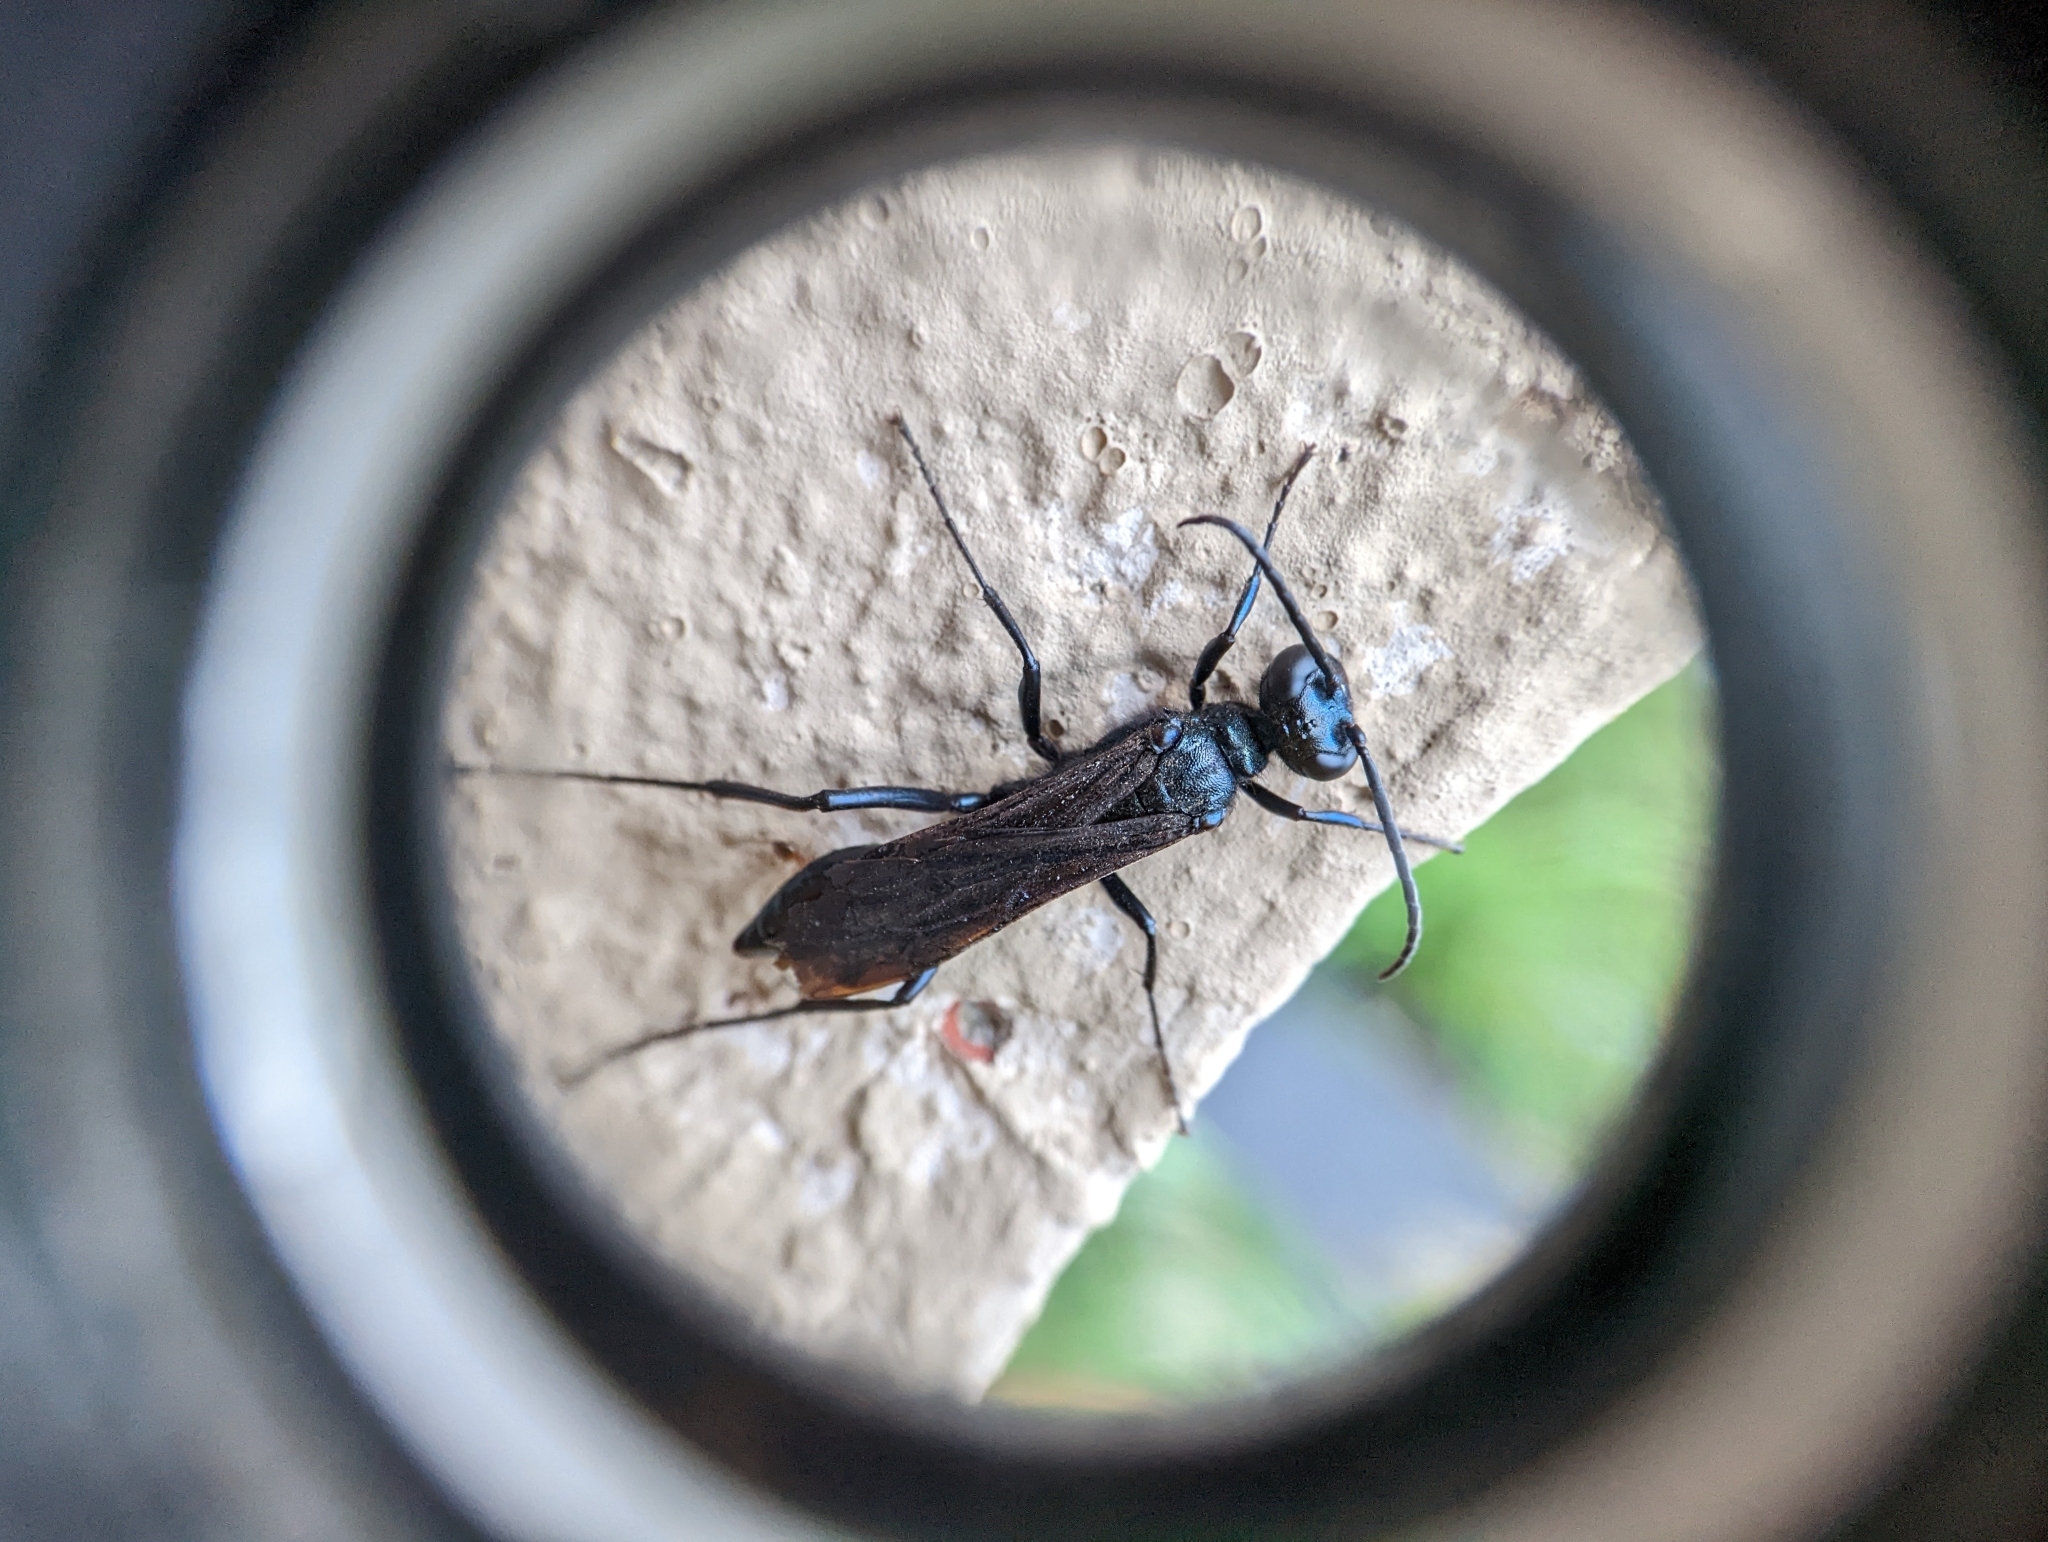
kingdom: Animalia
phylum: Arthropoda
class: Insecta
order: Hymenoptera
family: Sphecidae
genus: Chalybion
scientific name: Chalybion californicum
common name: Mud dauber
